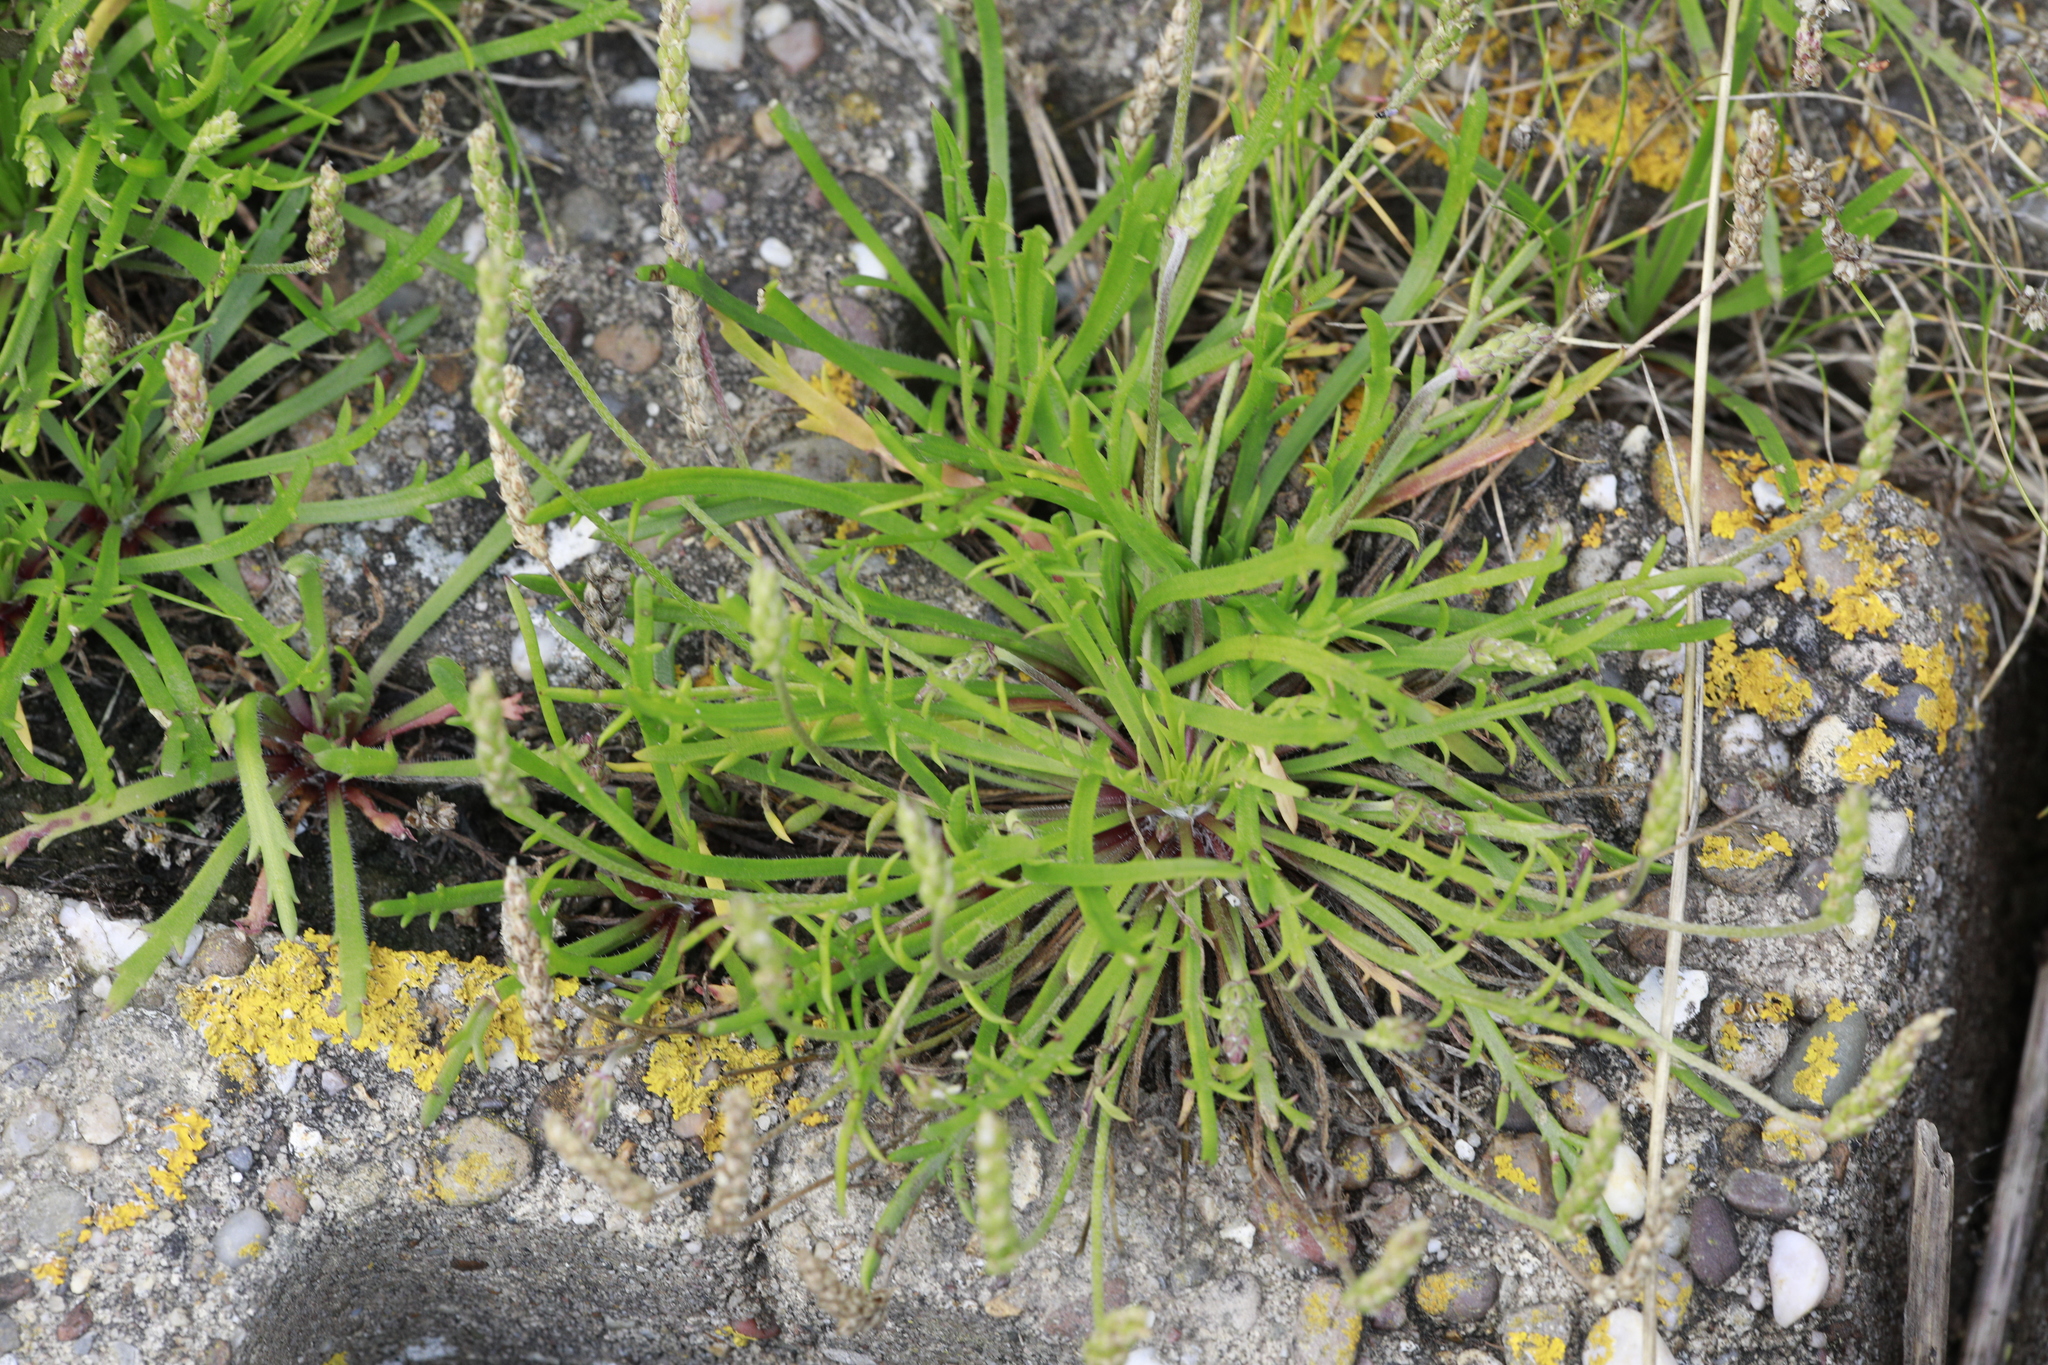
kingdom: Plantae
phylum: Tracheophyta
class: Magnoliopsida
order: Lamiales
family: Plantaginaceae
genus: Plantago
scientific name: Plantago coronopus
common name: Buck's-horn plantain
